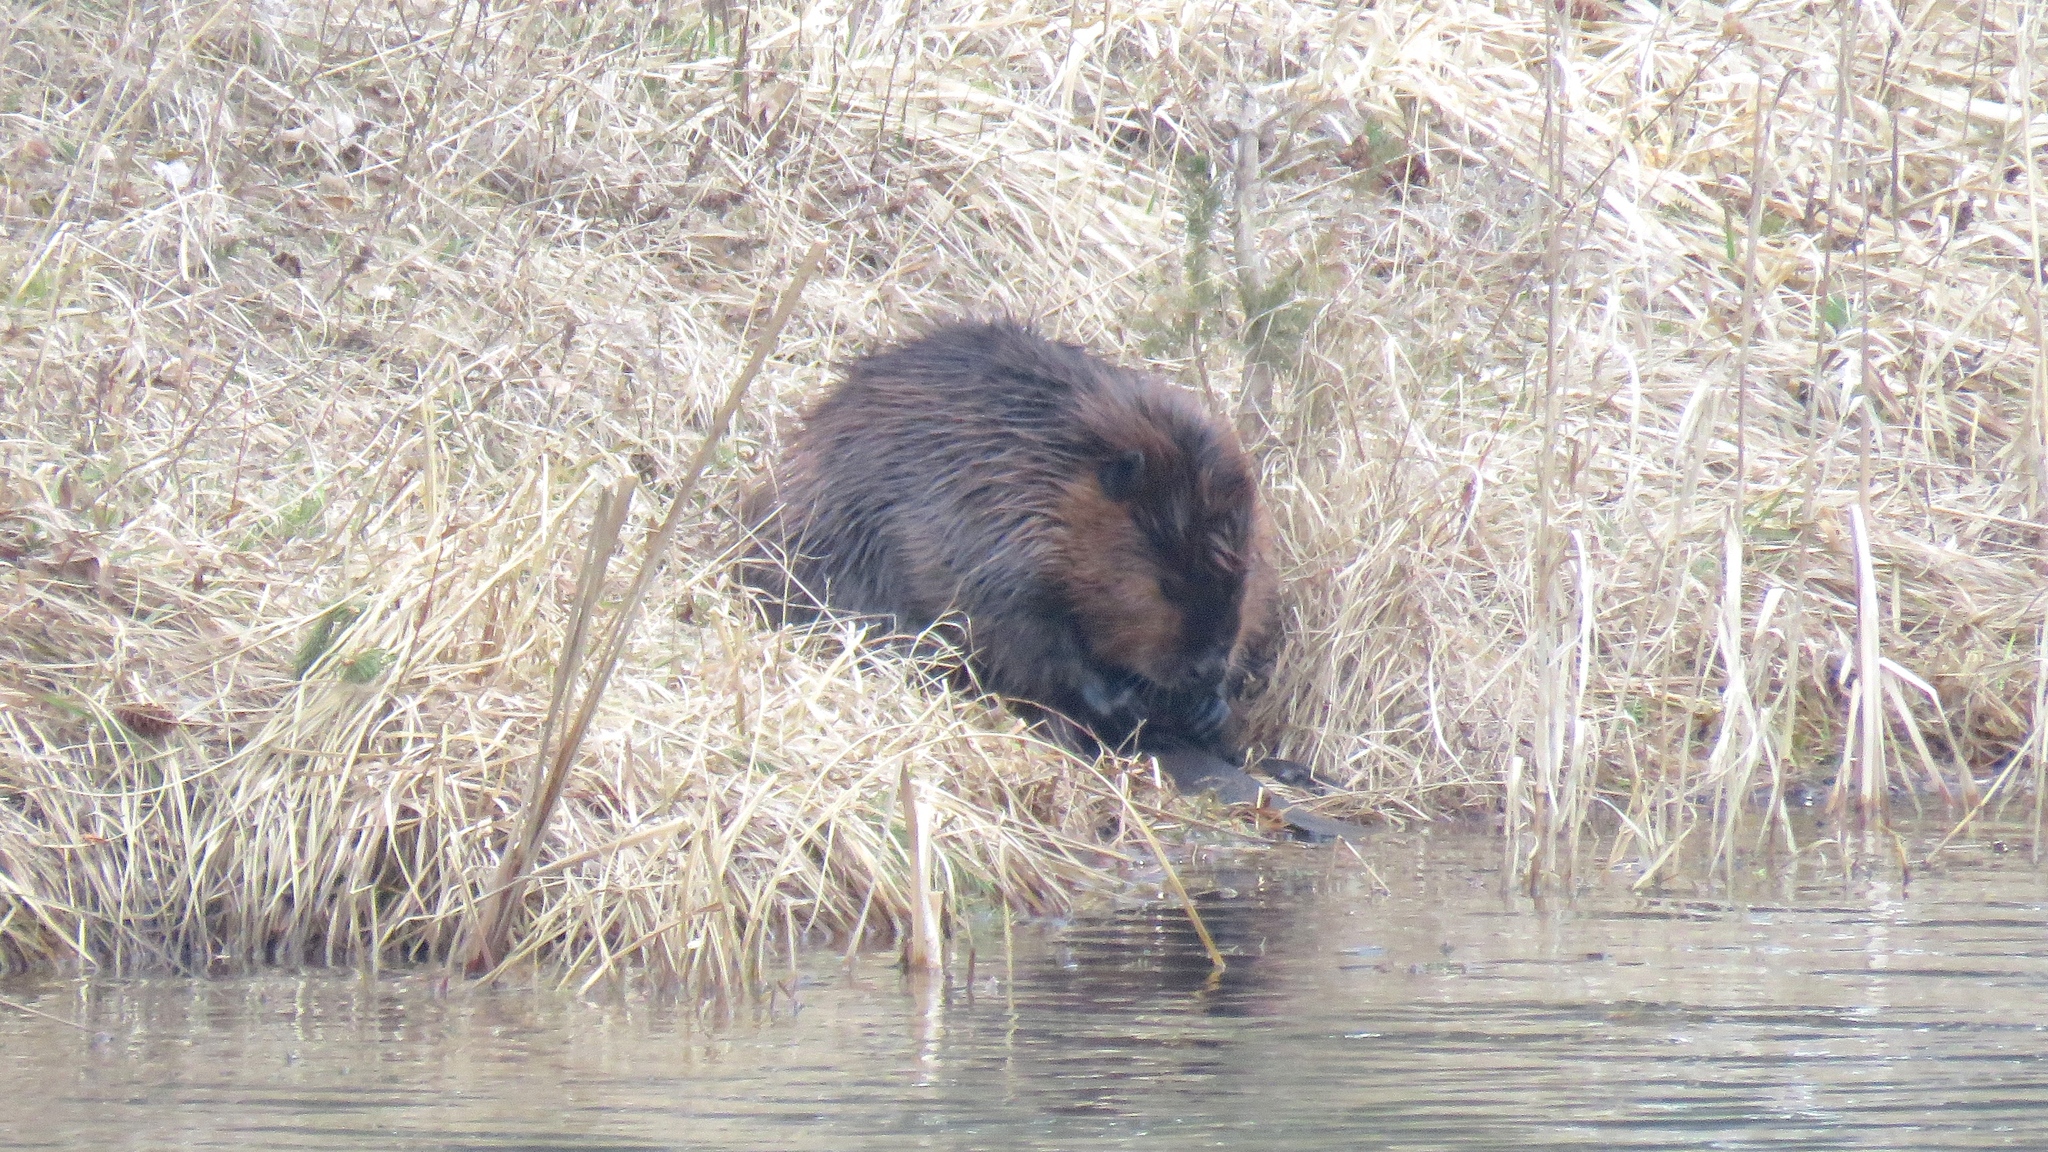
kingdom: Animalia
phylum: Chordata
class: Mammalia
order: Rodentia
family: Castoridae
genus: Castor
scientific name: Castor canadensis
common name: American beaver
